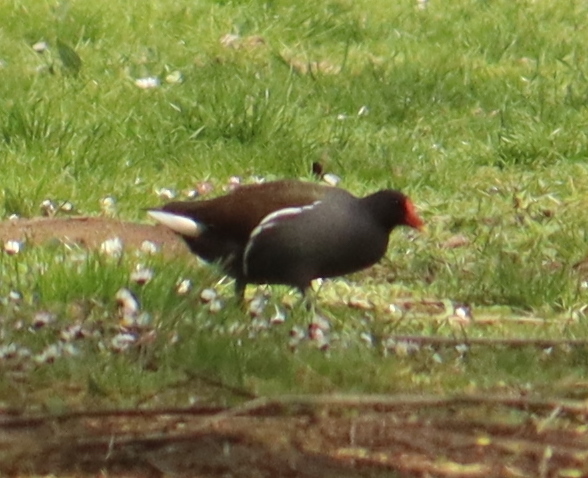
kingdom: Animalia
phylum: Chordata
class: Aves
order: Gruiformes
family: Rallidae
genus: Gallinula
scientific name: Gallinula chloropus
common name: Common moorhen
